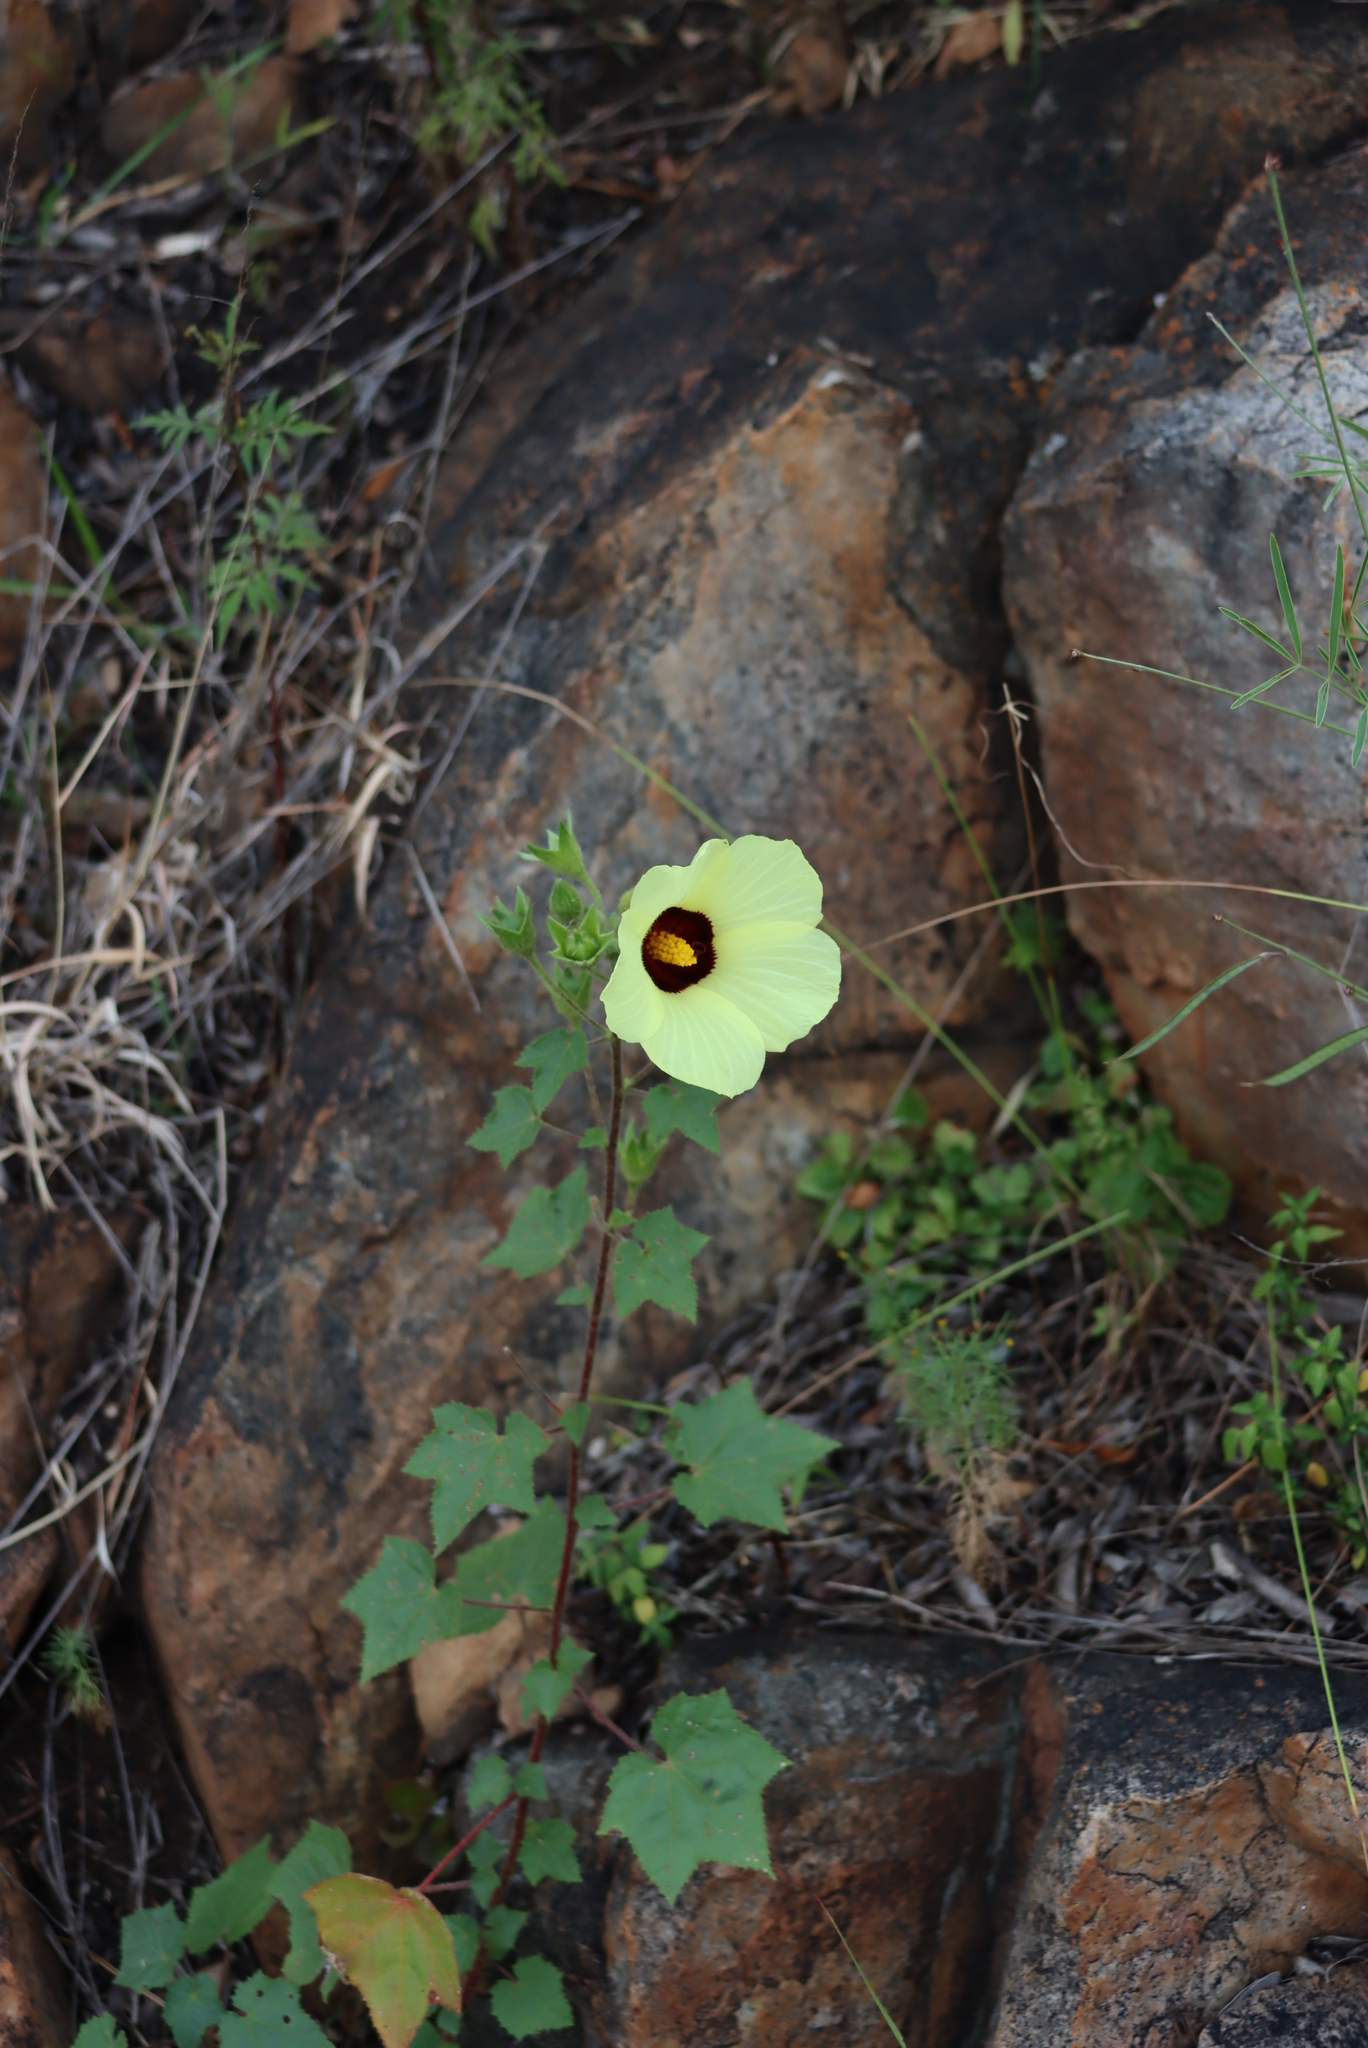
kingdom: Plantae
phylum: Tracheophyta
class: Magnoliopsida
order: Malvales
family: Malvaceae
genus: Hibiscus
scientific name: Hibiscus engleri
